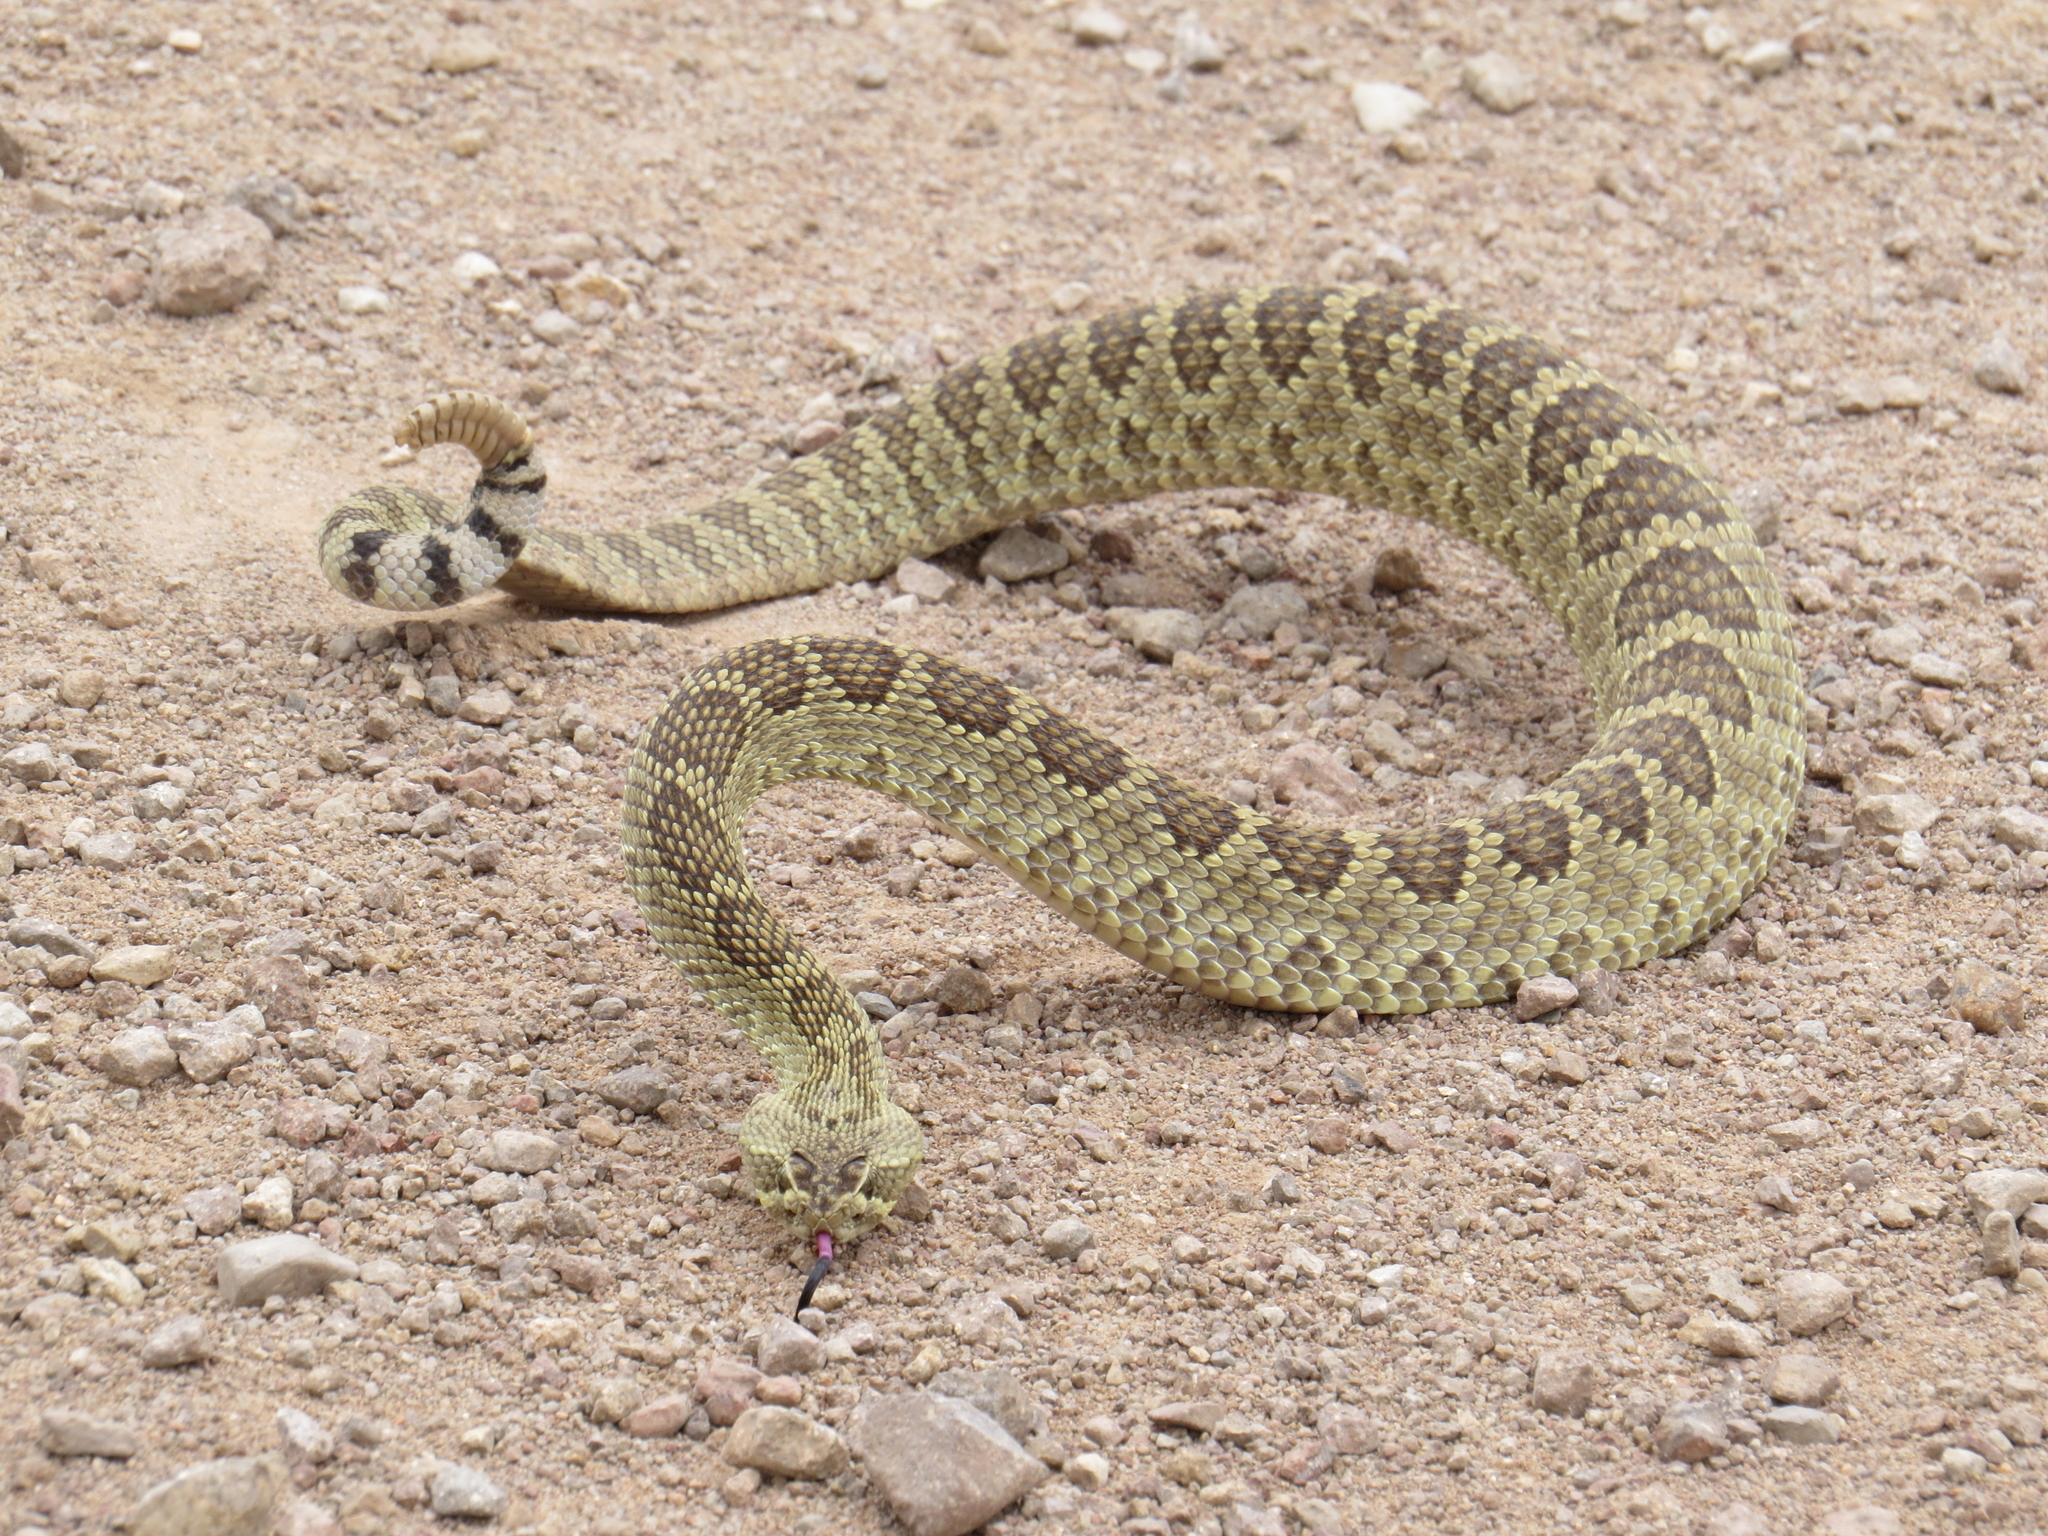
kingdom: Animalia
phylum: Chordata
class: Squamata
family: Viperidae
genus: Crotalus
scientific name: Crotalus scutulatus
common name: Scutulatus
